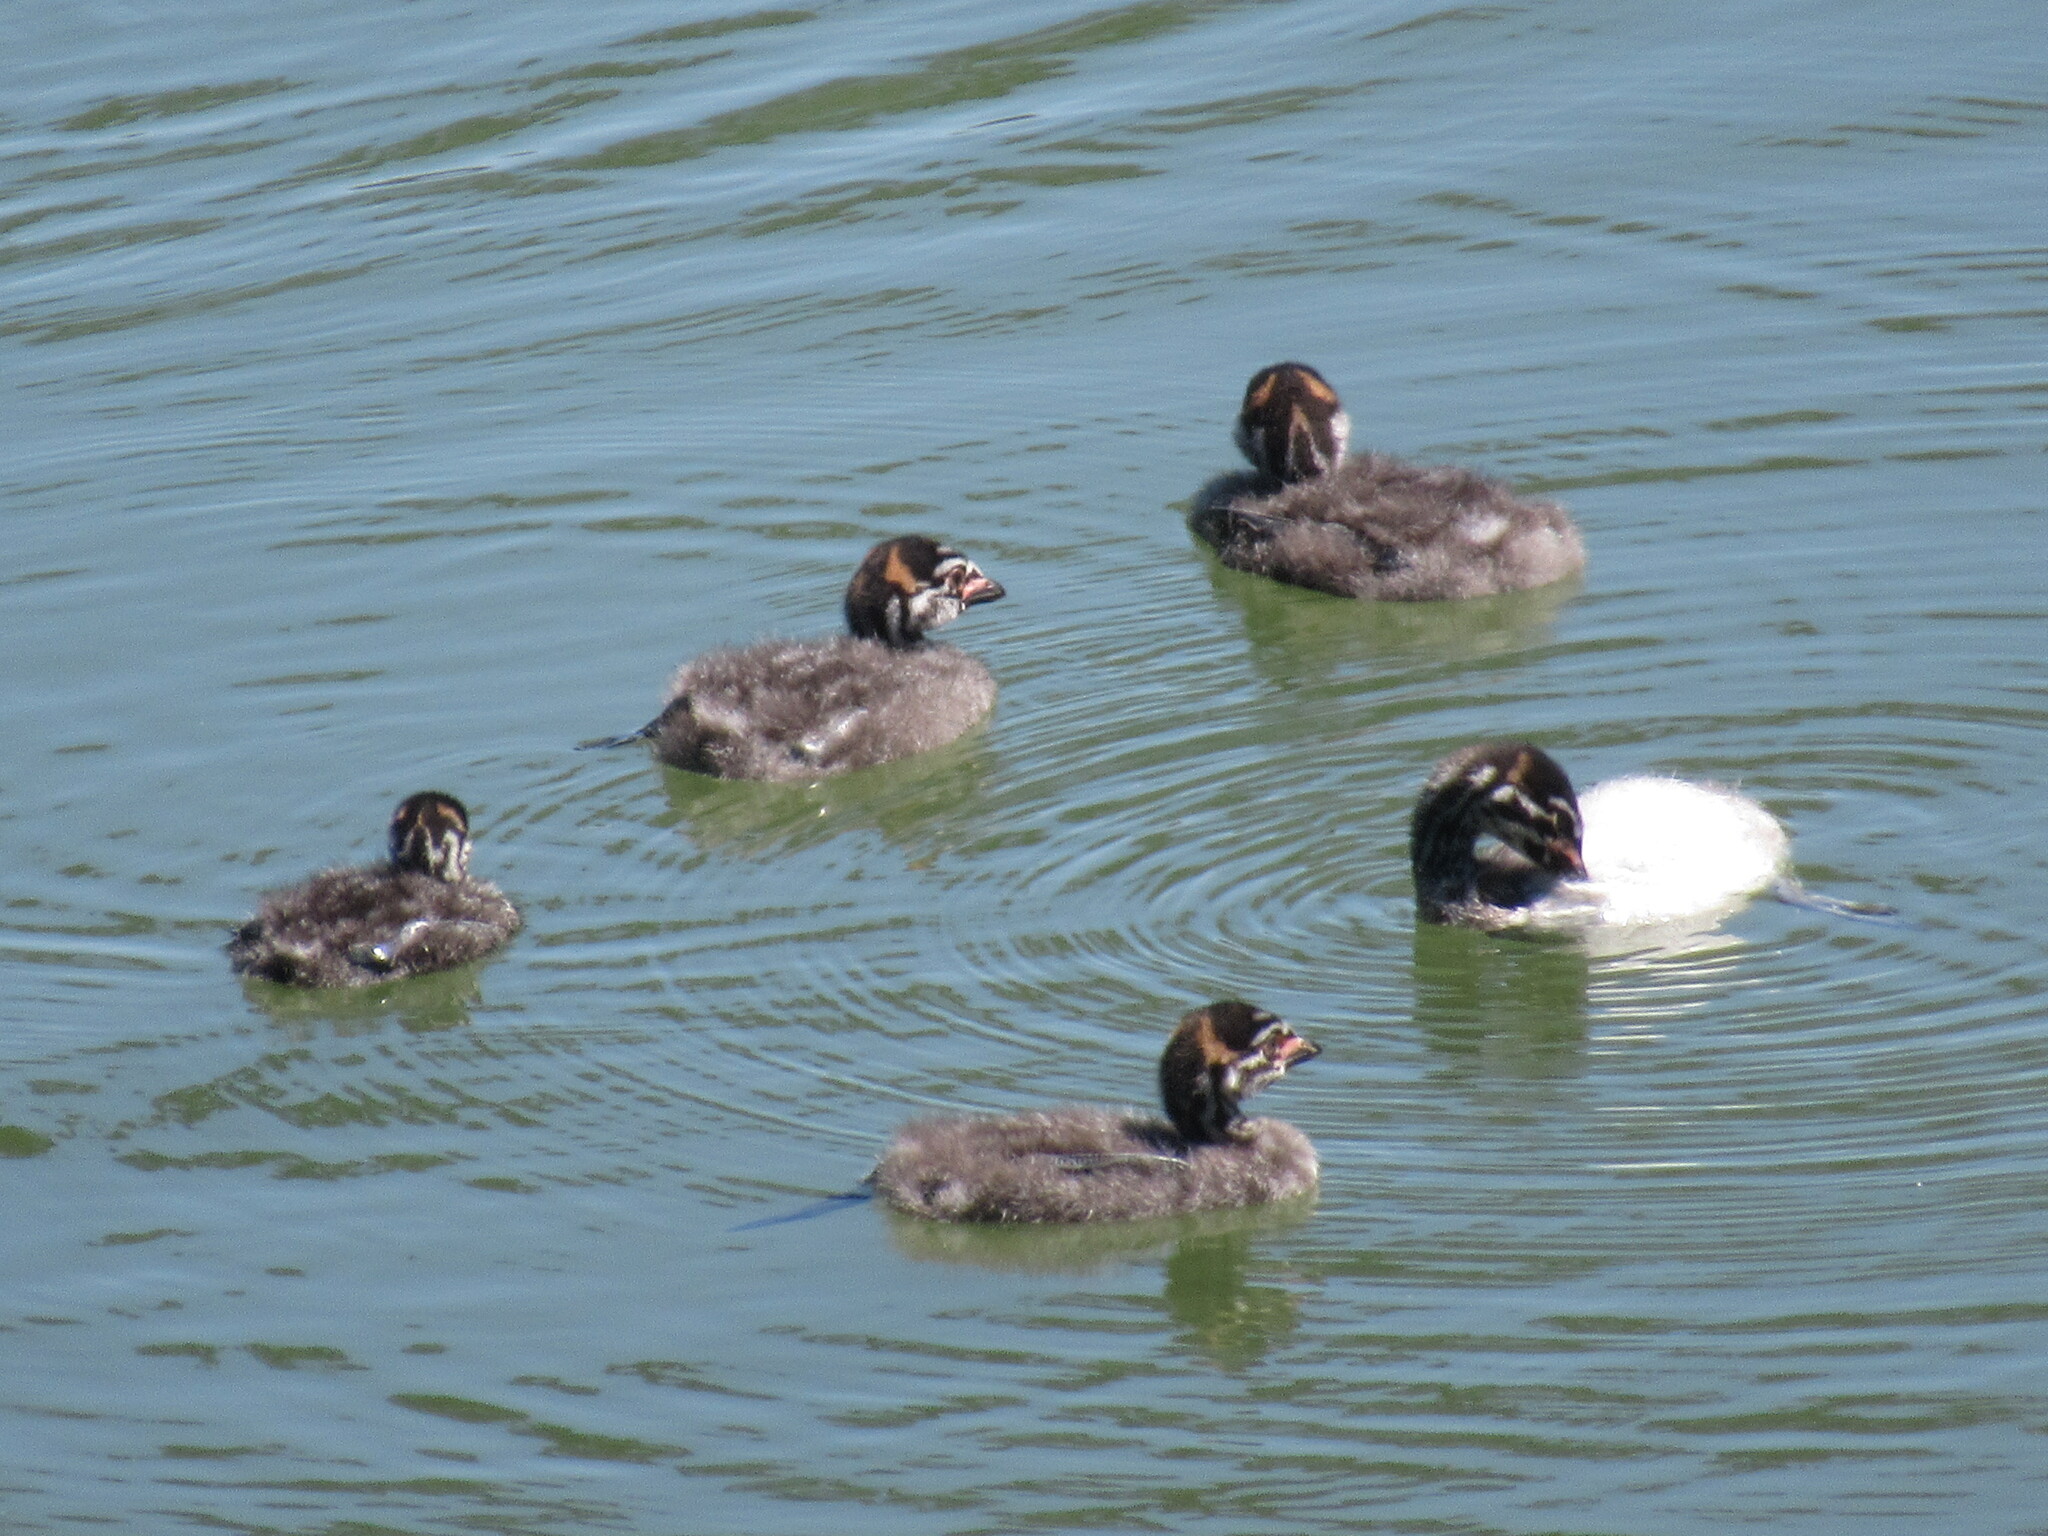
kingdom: Animalia
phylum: Chordata
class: Aves
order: Podicipediformes
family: Podicipedidae
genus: Podilymbus
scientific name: Podilymbus podiceps
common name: Pied-billed grebe
